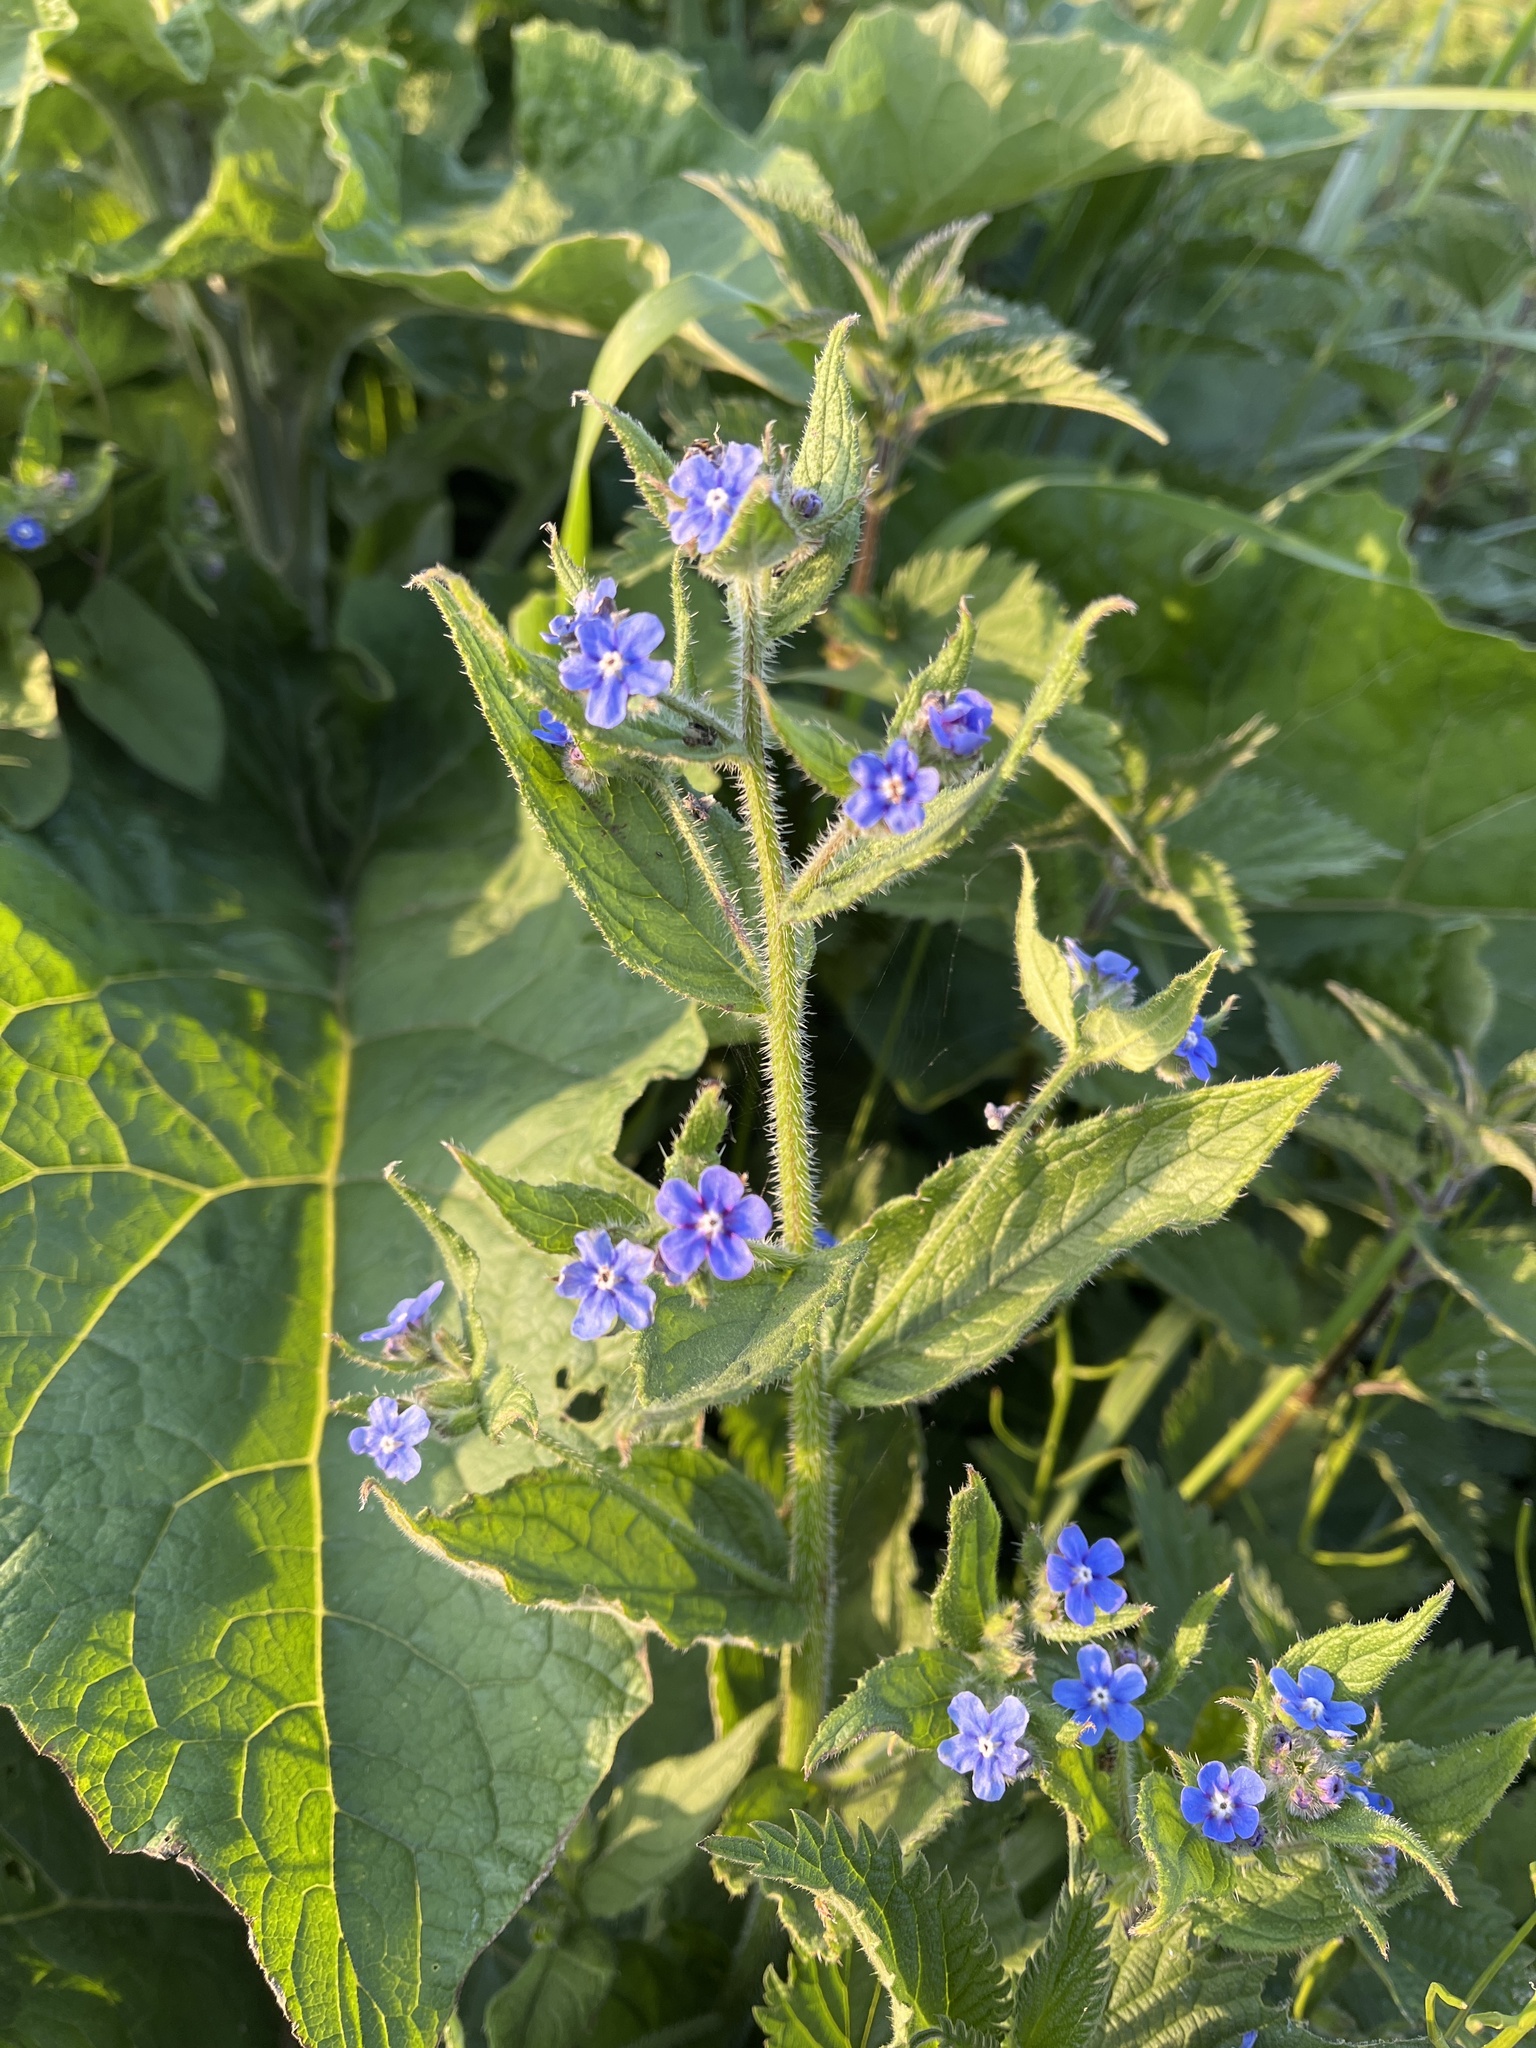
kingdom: Plantae
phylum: Tracheophyta
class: Magnoliopsida
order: Boraginales
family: Boraginaceae
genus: Pentaglottis
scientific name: Pentaglottis sempervirens
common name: Green alkanet
